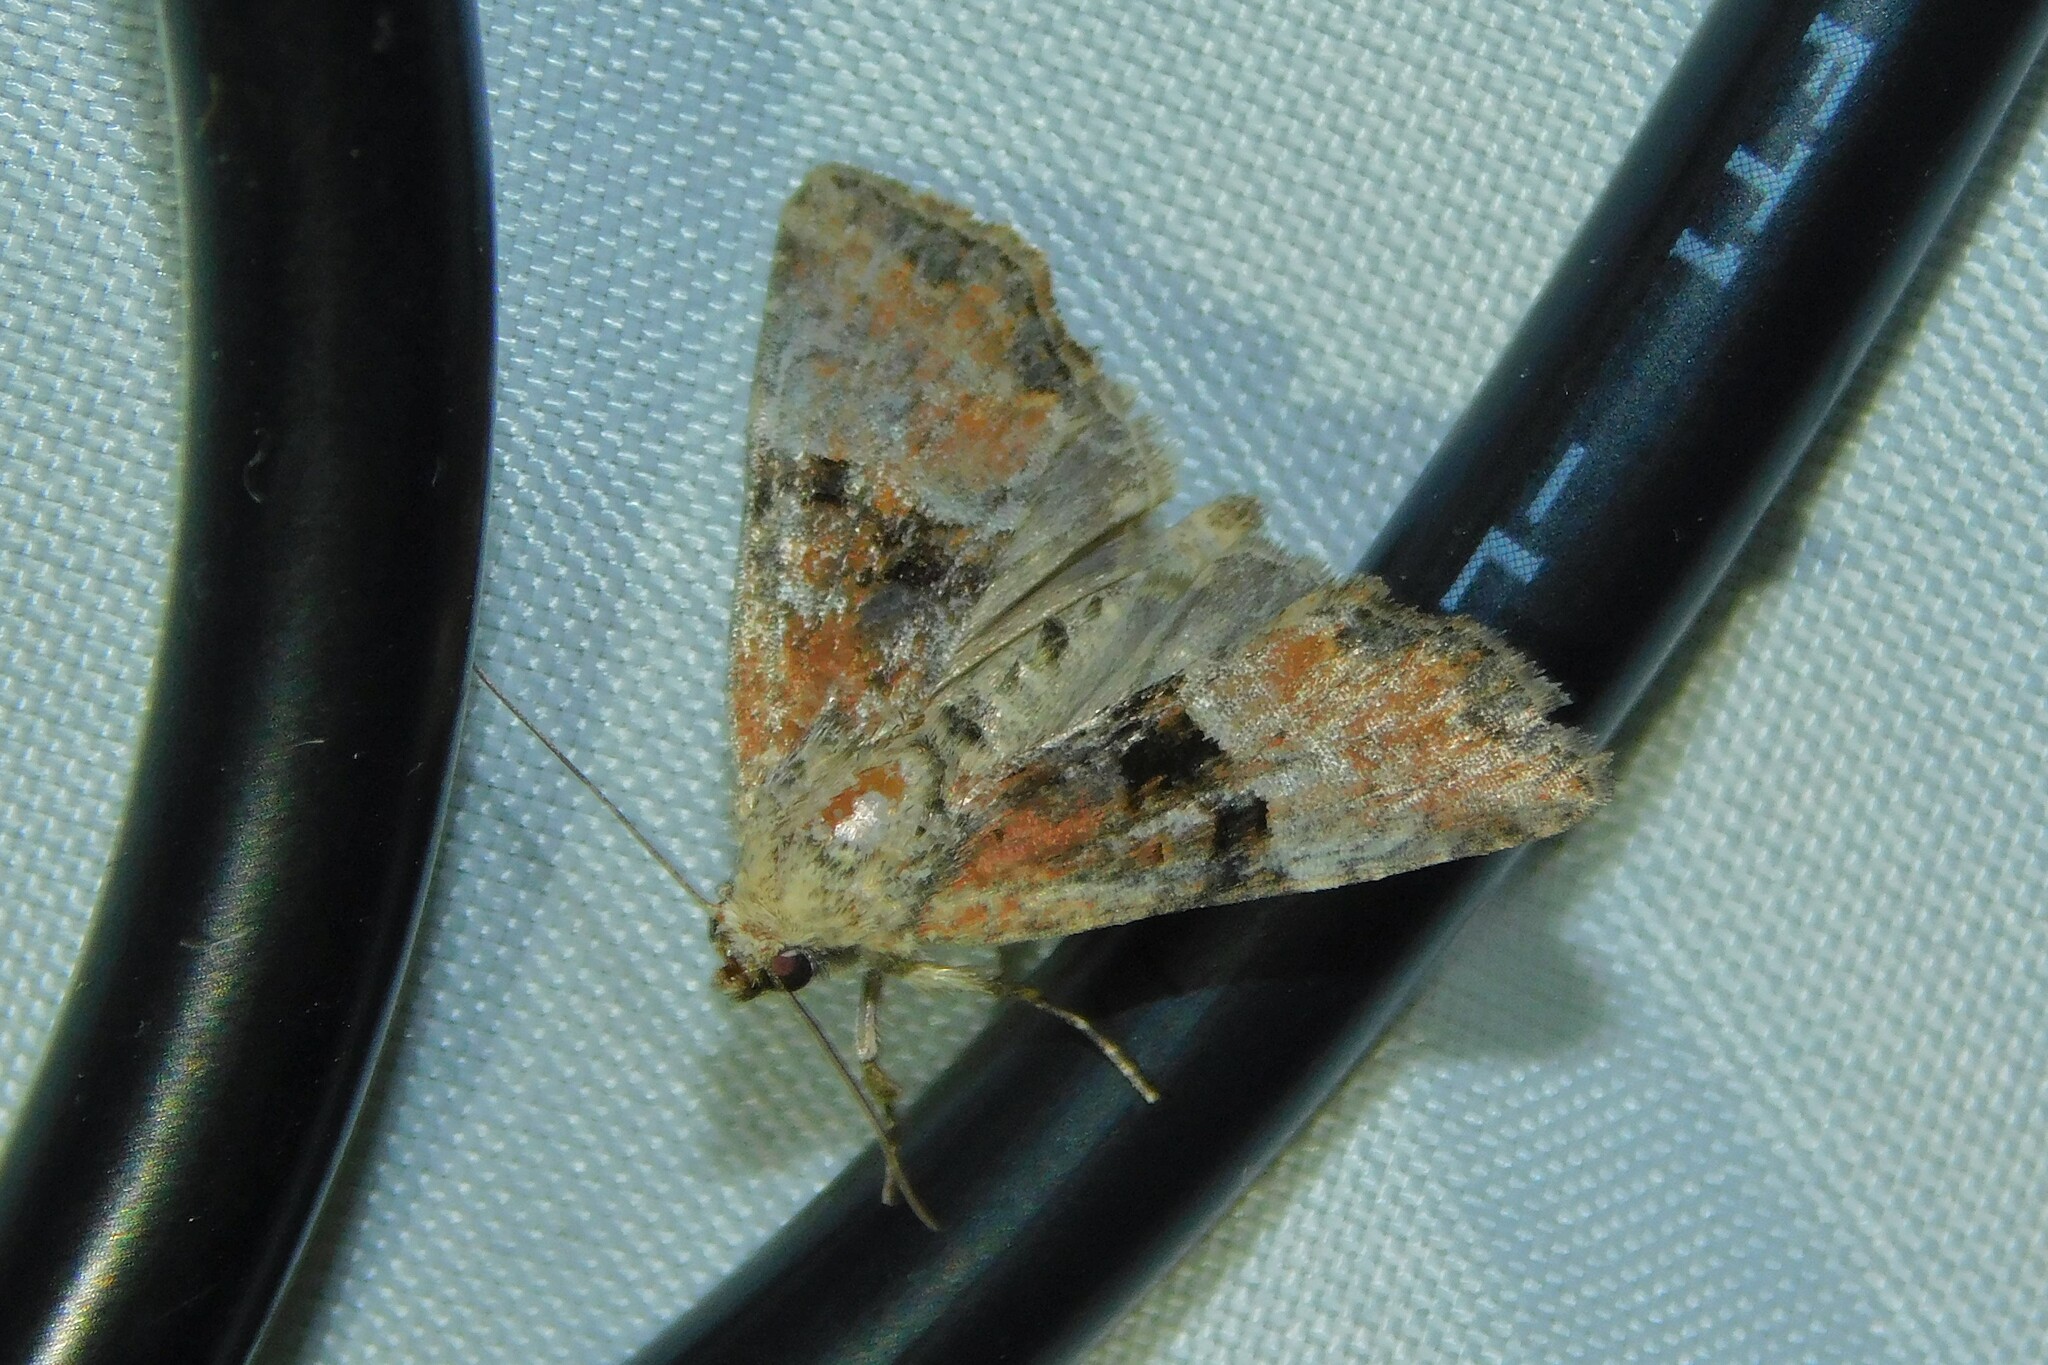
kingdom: Animalia
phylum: Arthropoda
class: Insecta
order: Lepidoptera
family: Noctuidae
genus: Mesoligia
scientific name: Mesoligia furuncula
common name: Cloaked minor
